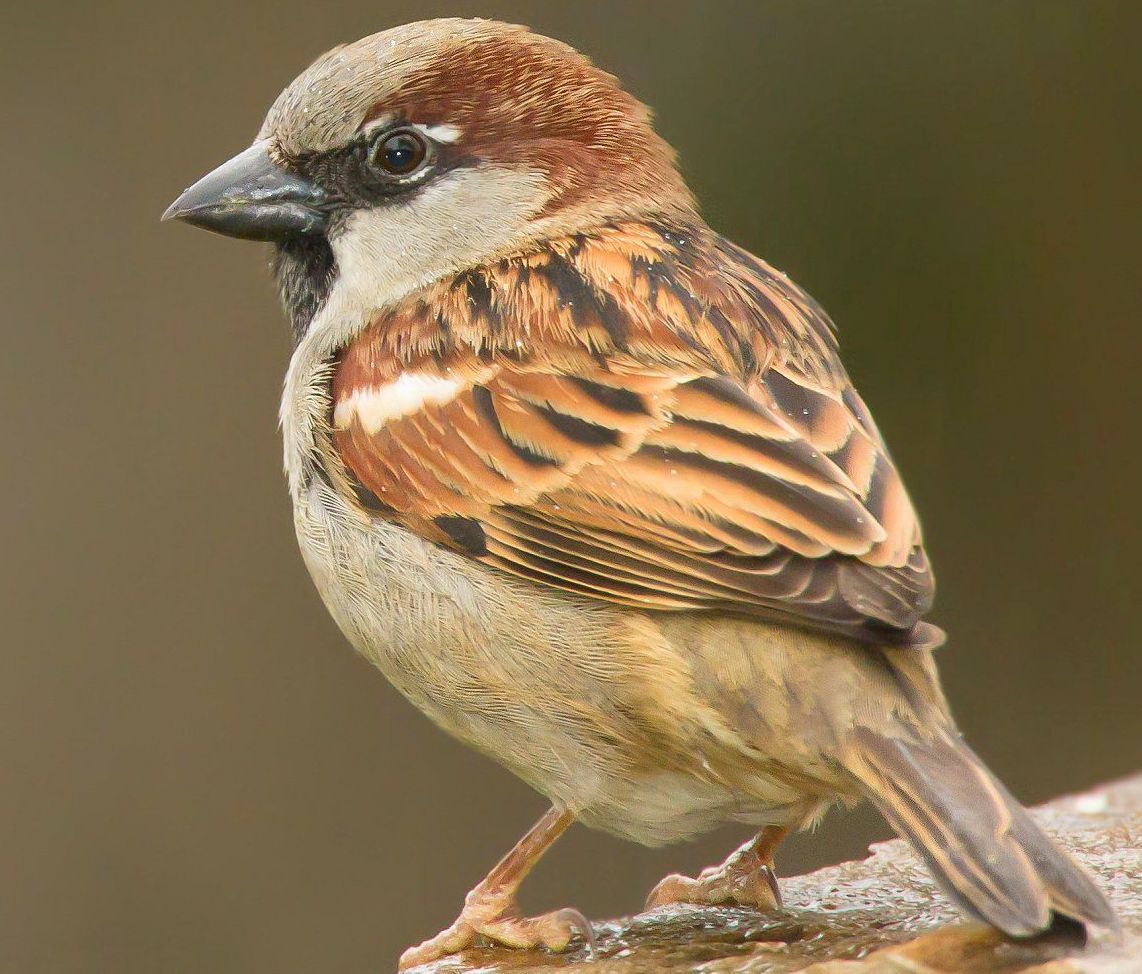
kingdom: Animalia
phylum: Chordata
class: Aves
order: Passeriformes
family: Passeridae
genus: Passer
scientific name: Passer domesticus
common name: House sparrow
